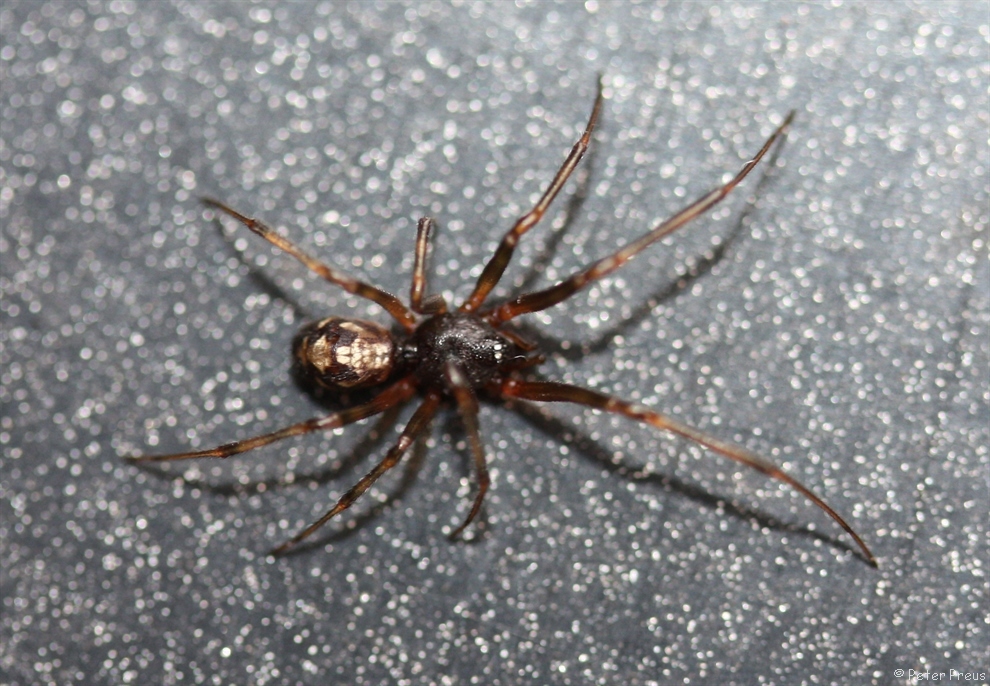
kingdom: Animalia
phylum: Arthropoda
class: Arachnida
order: Araneae
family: Theridiidae
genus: Steatoda
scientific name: Steatoda triangulosa
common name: Triangulate bud spider
